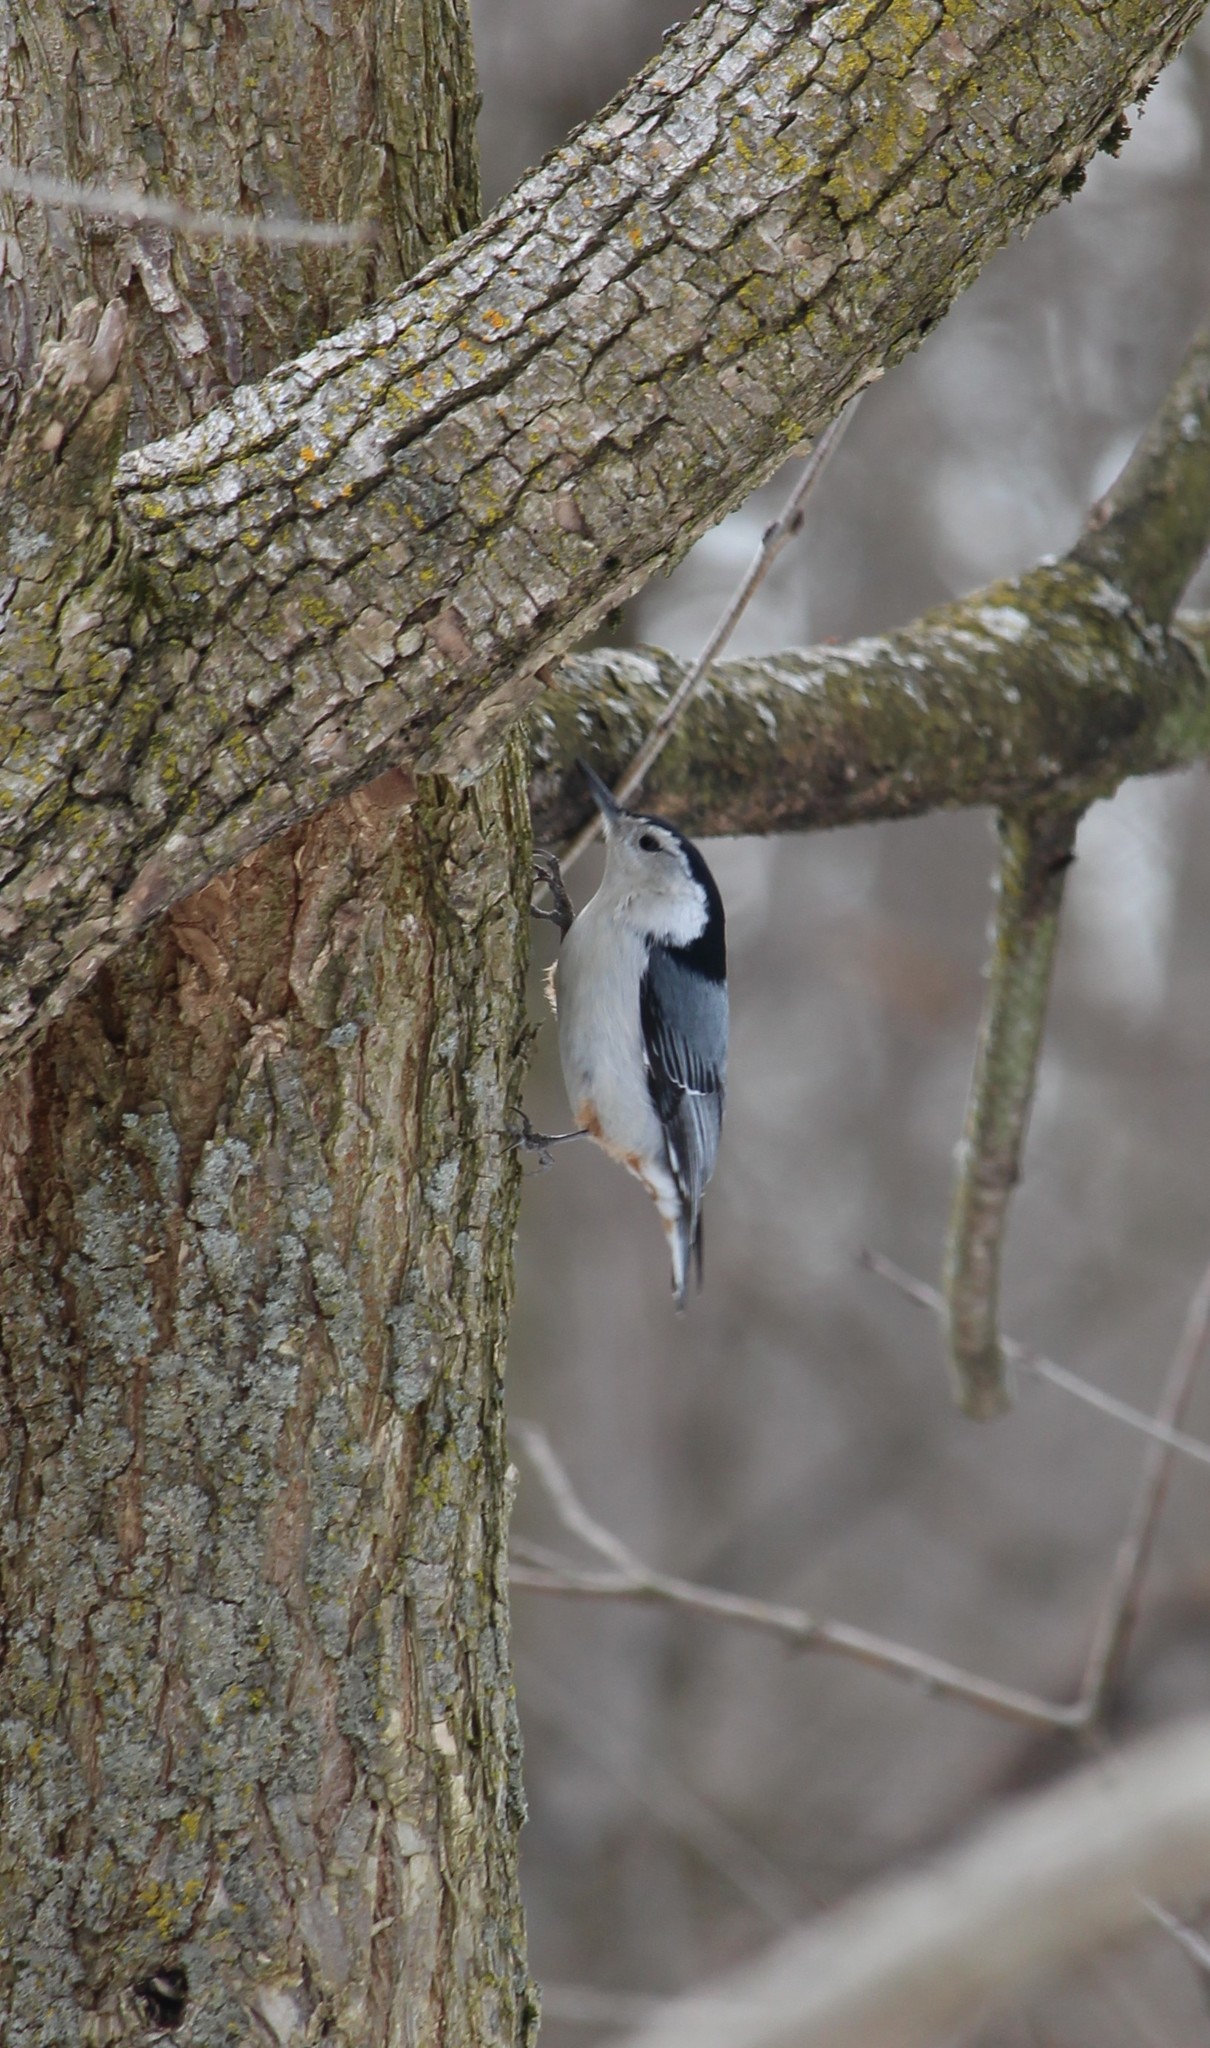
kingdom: Animalia
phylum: Chordata
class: Aves
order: Passeriformes
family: Sittidae
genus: Sitta
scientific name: Sitta carolinensis
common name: White-breasted nuthatch
